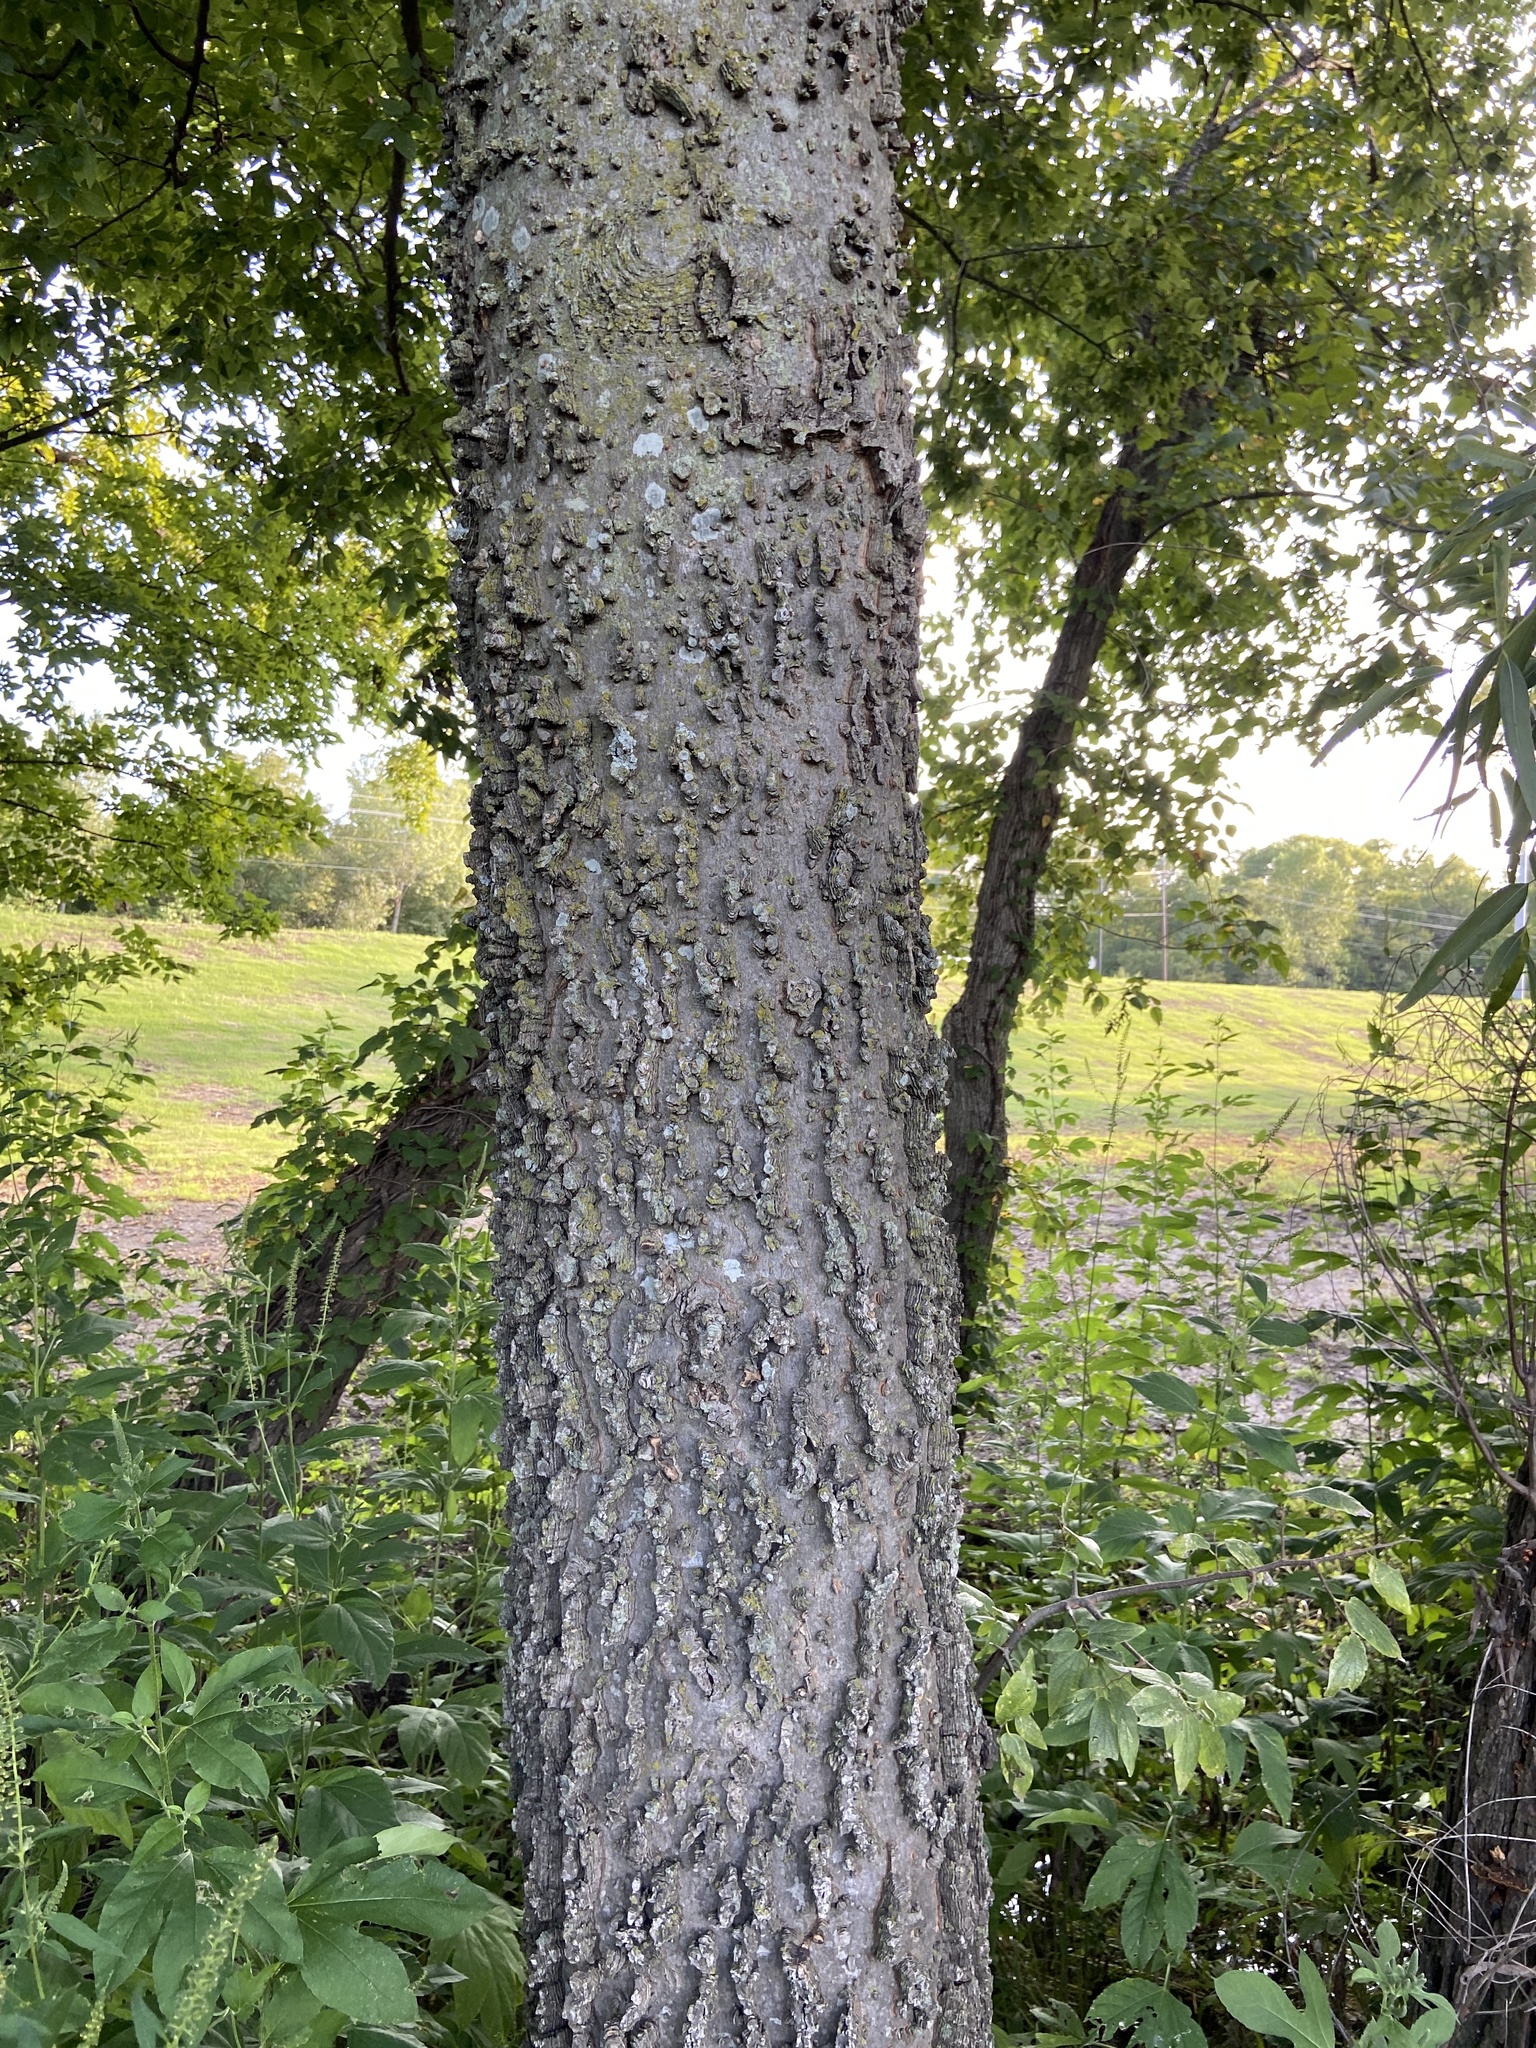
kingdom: Plantae
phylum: Tracheophyta
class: Magnoliopsida
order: Rosales
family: Cannabaceae
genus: Celtis
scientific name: Celtis laevigata
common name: Sugarberry
